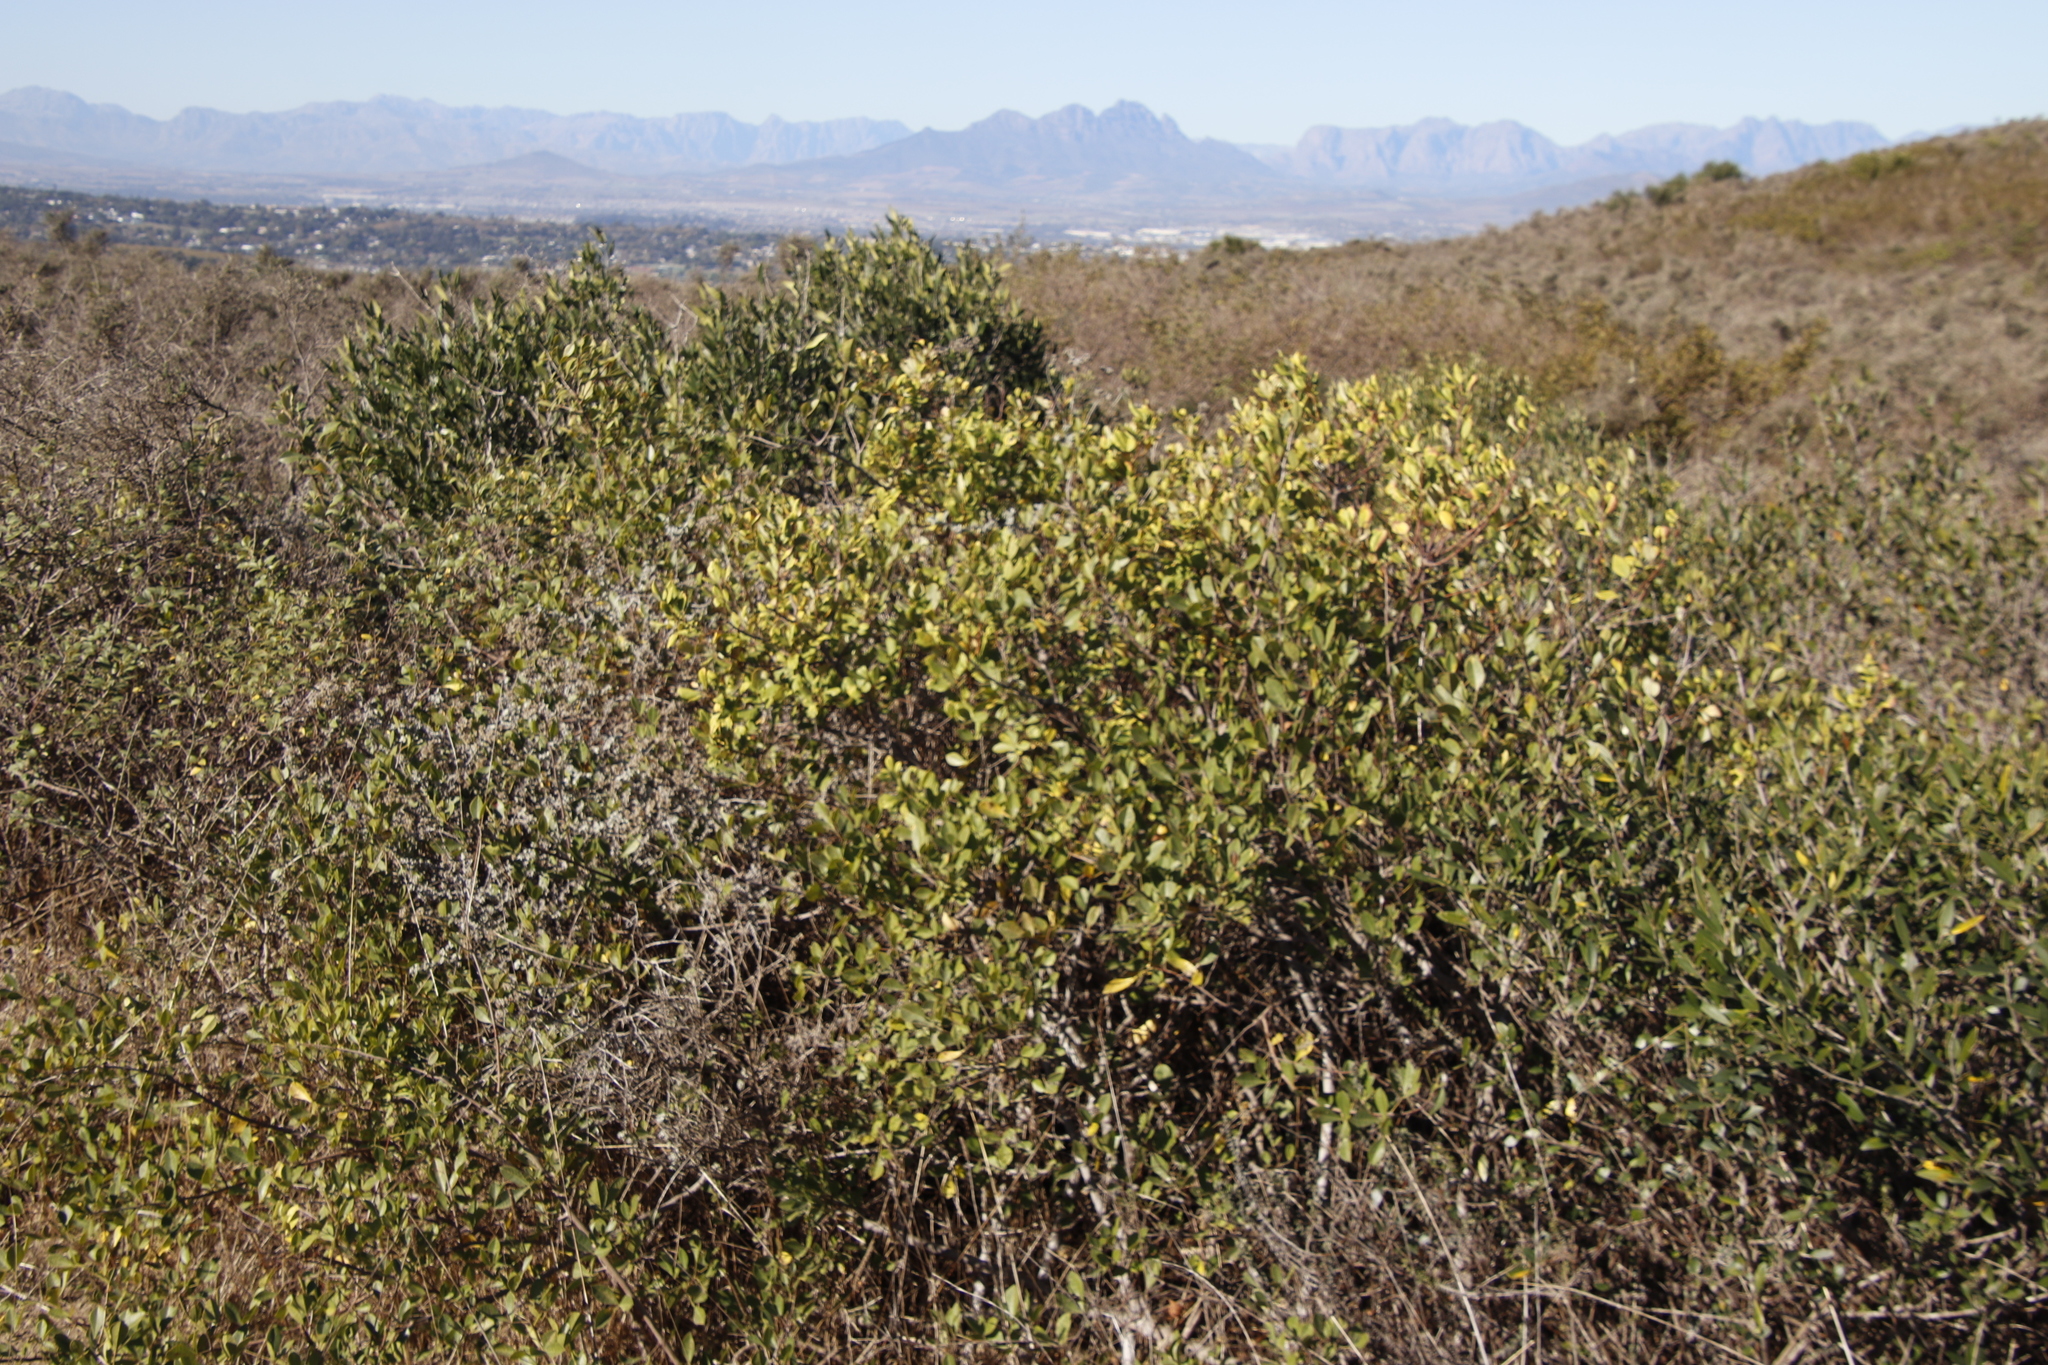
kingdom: Plantae
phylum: Tracheophyta
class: Magnoliopsida
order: Sapindales
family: Anacardiaceae
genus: Searsia
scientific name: Searsia tomentosa
